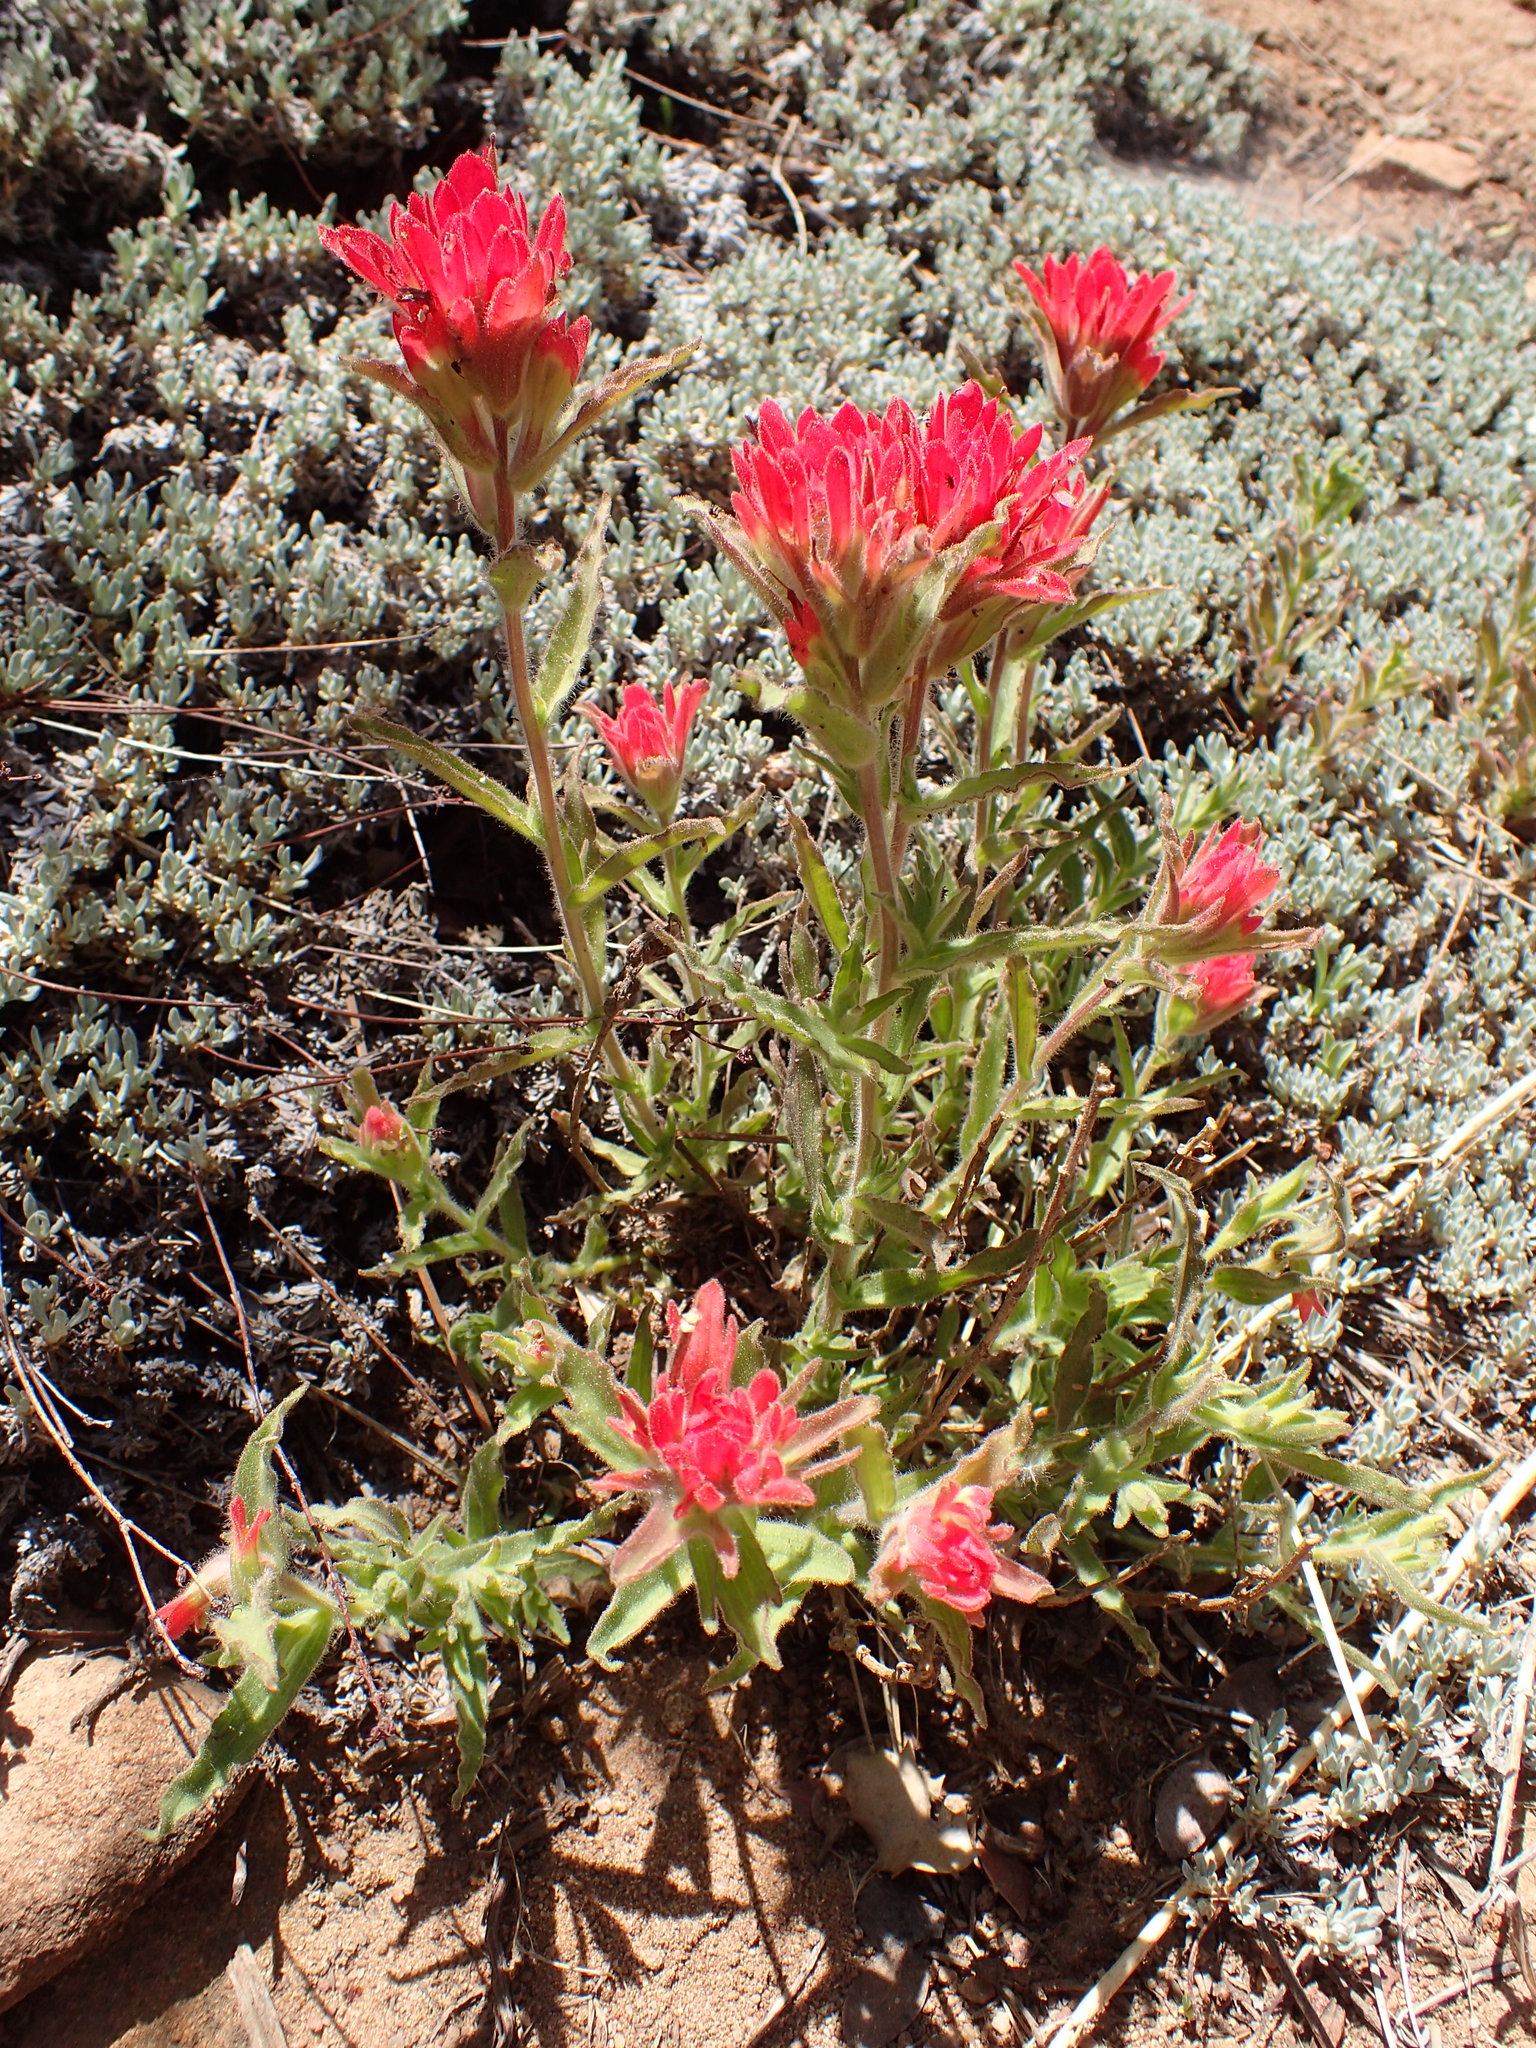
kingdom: Plantae
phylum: Tracheophyta
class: Magnoliopsida
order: Lamiales
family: Orobanchaceae
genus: Castilleja
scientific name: Castilleja martini
